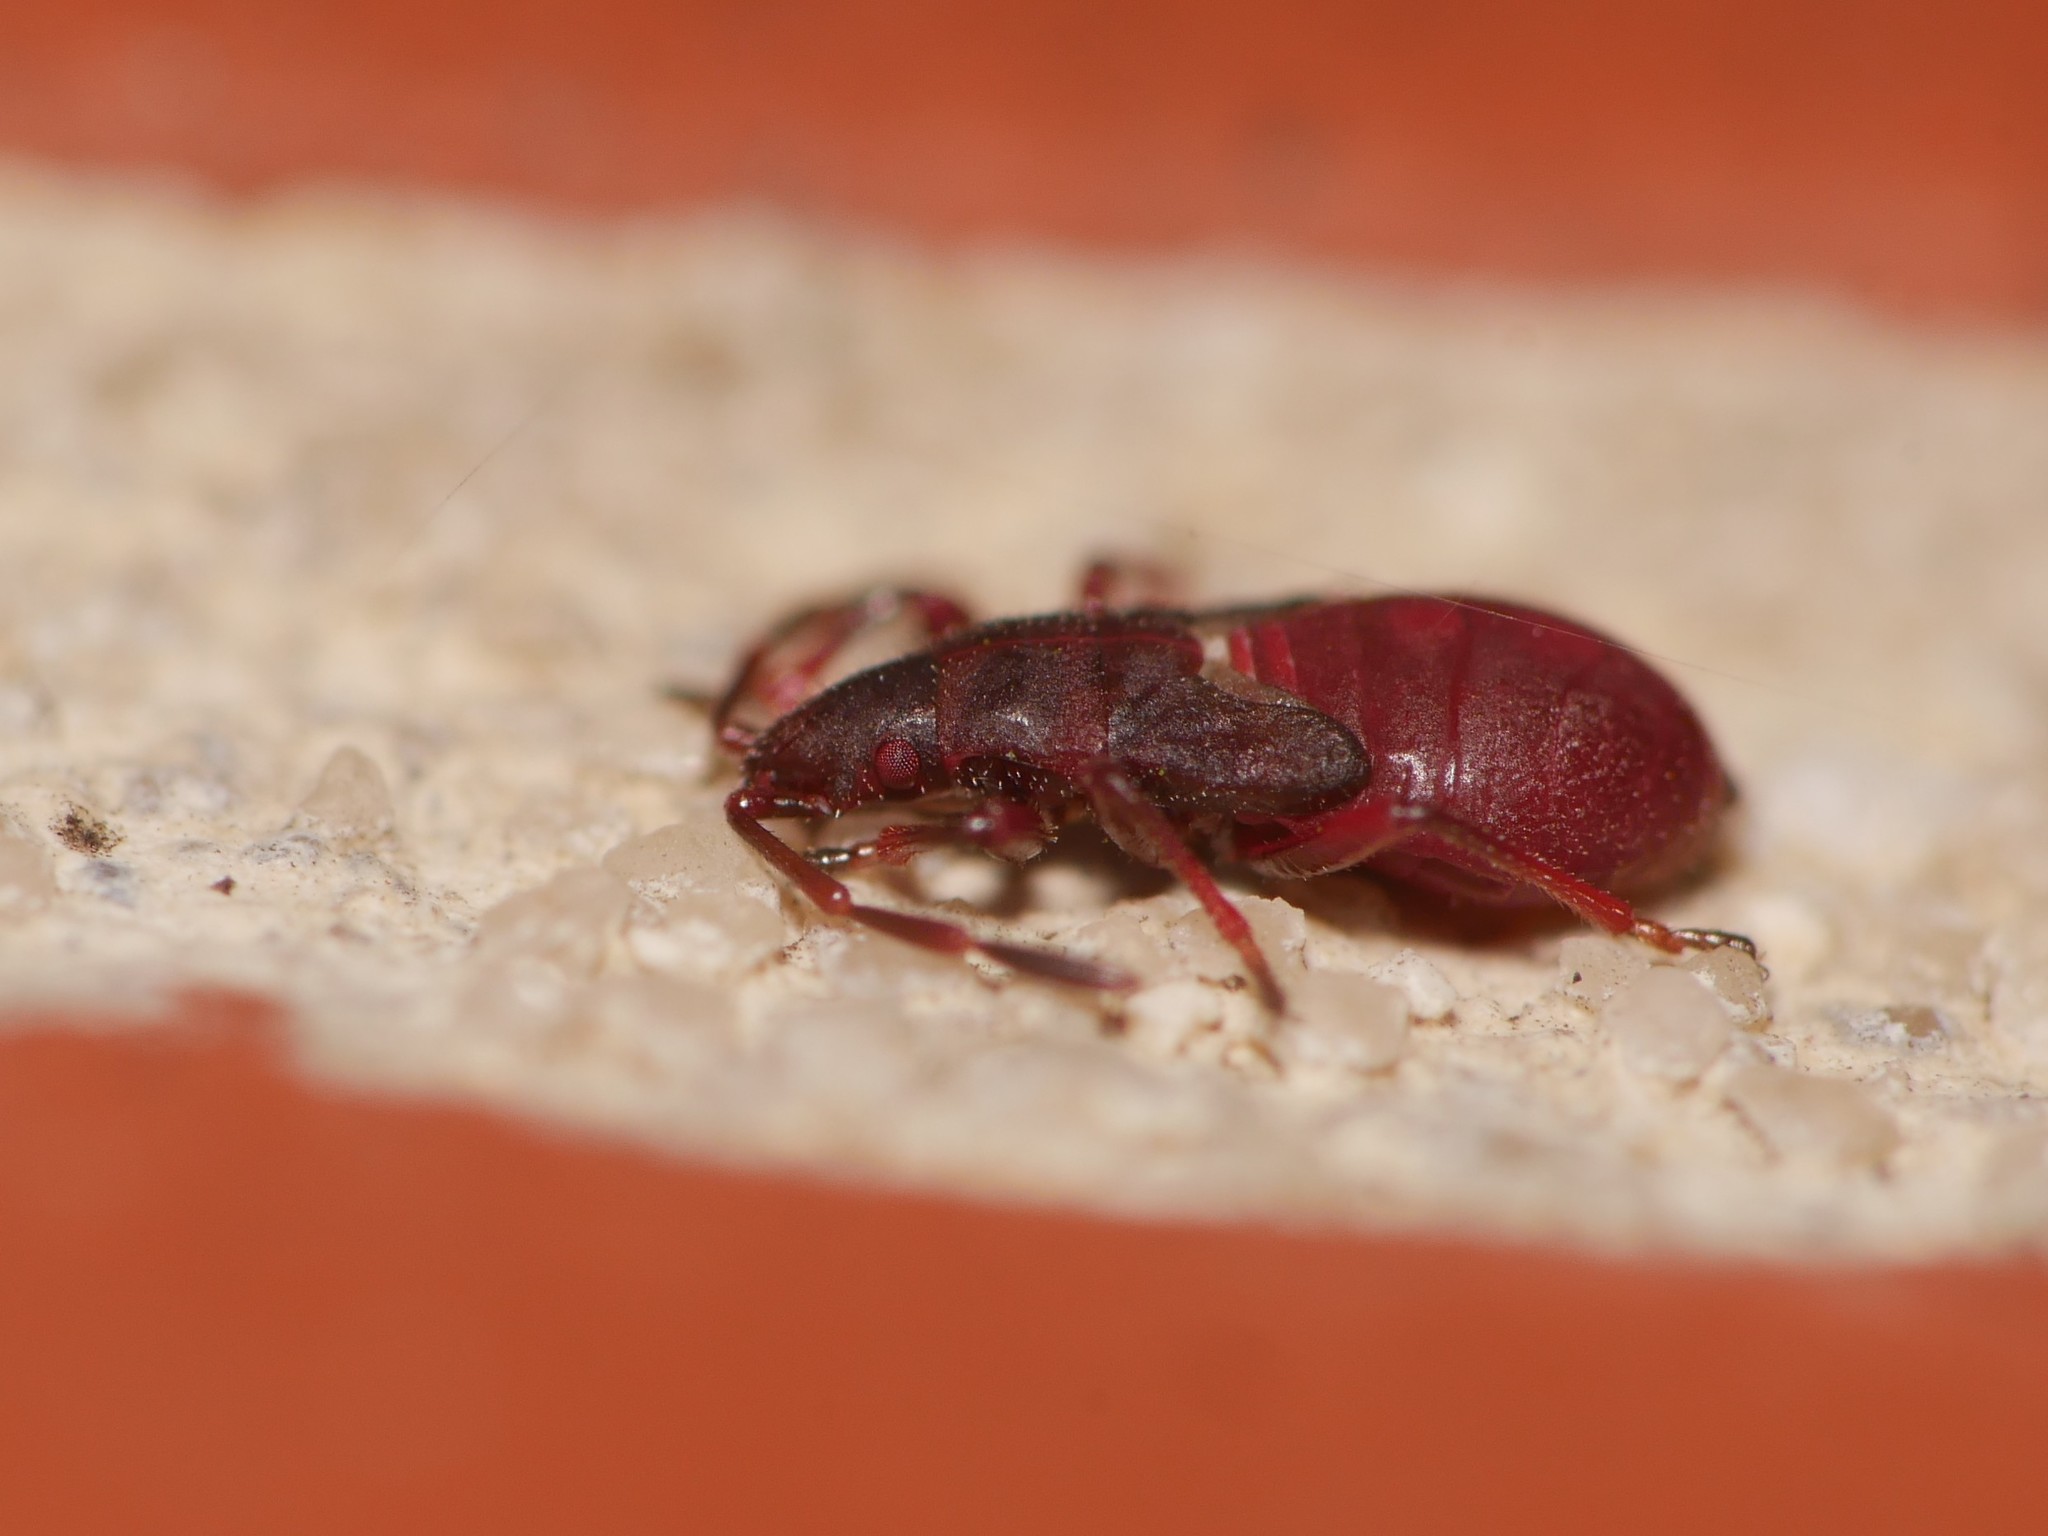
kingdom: Animalia
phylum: Arthropoda
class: Insecta
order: Hemiptera
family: Oxycarenidae
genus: Oxycarenus
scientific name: Oxycarenus lavaterae
